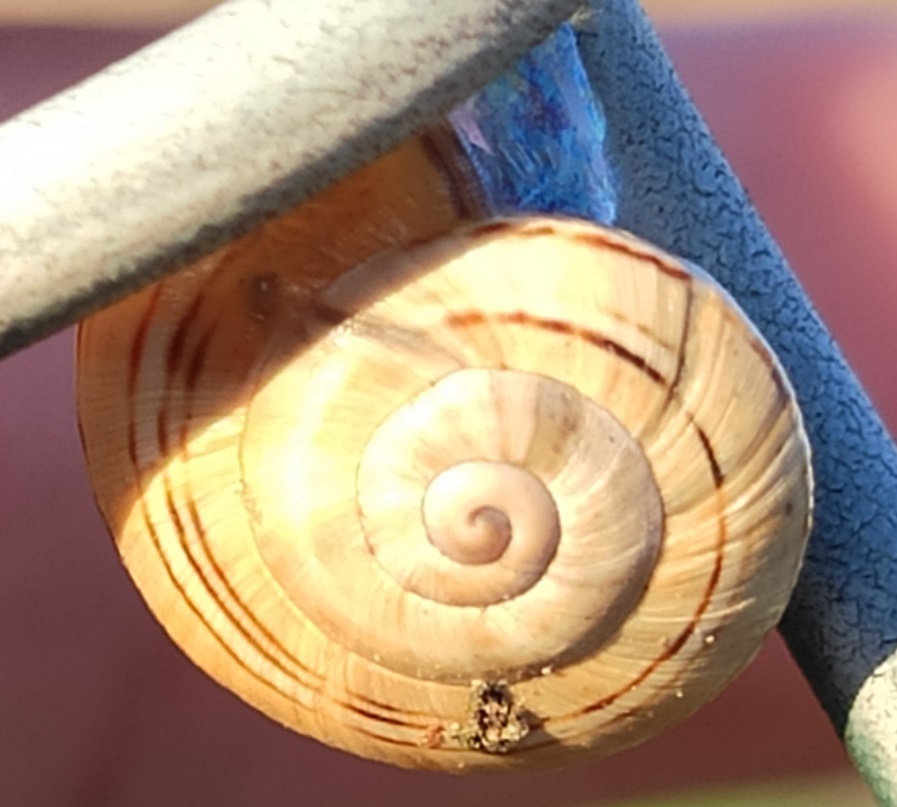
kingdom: Animalia
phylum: Mollusca
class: Gastropoda
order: Stylommatophora
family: Helicidae
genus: Theba
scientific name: Theba pisana
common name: White snail
